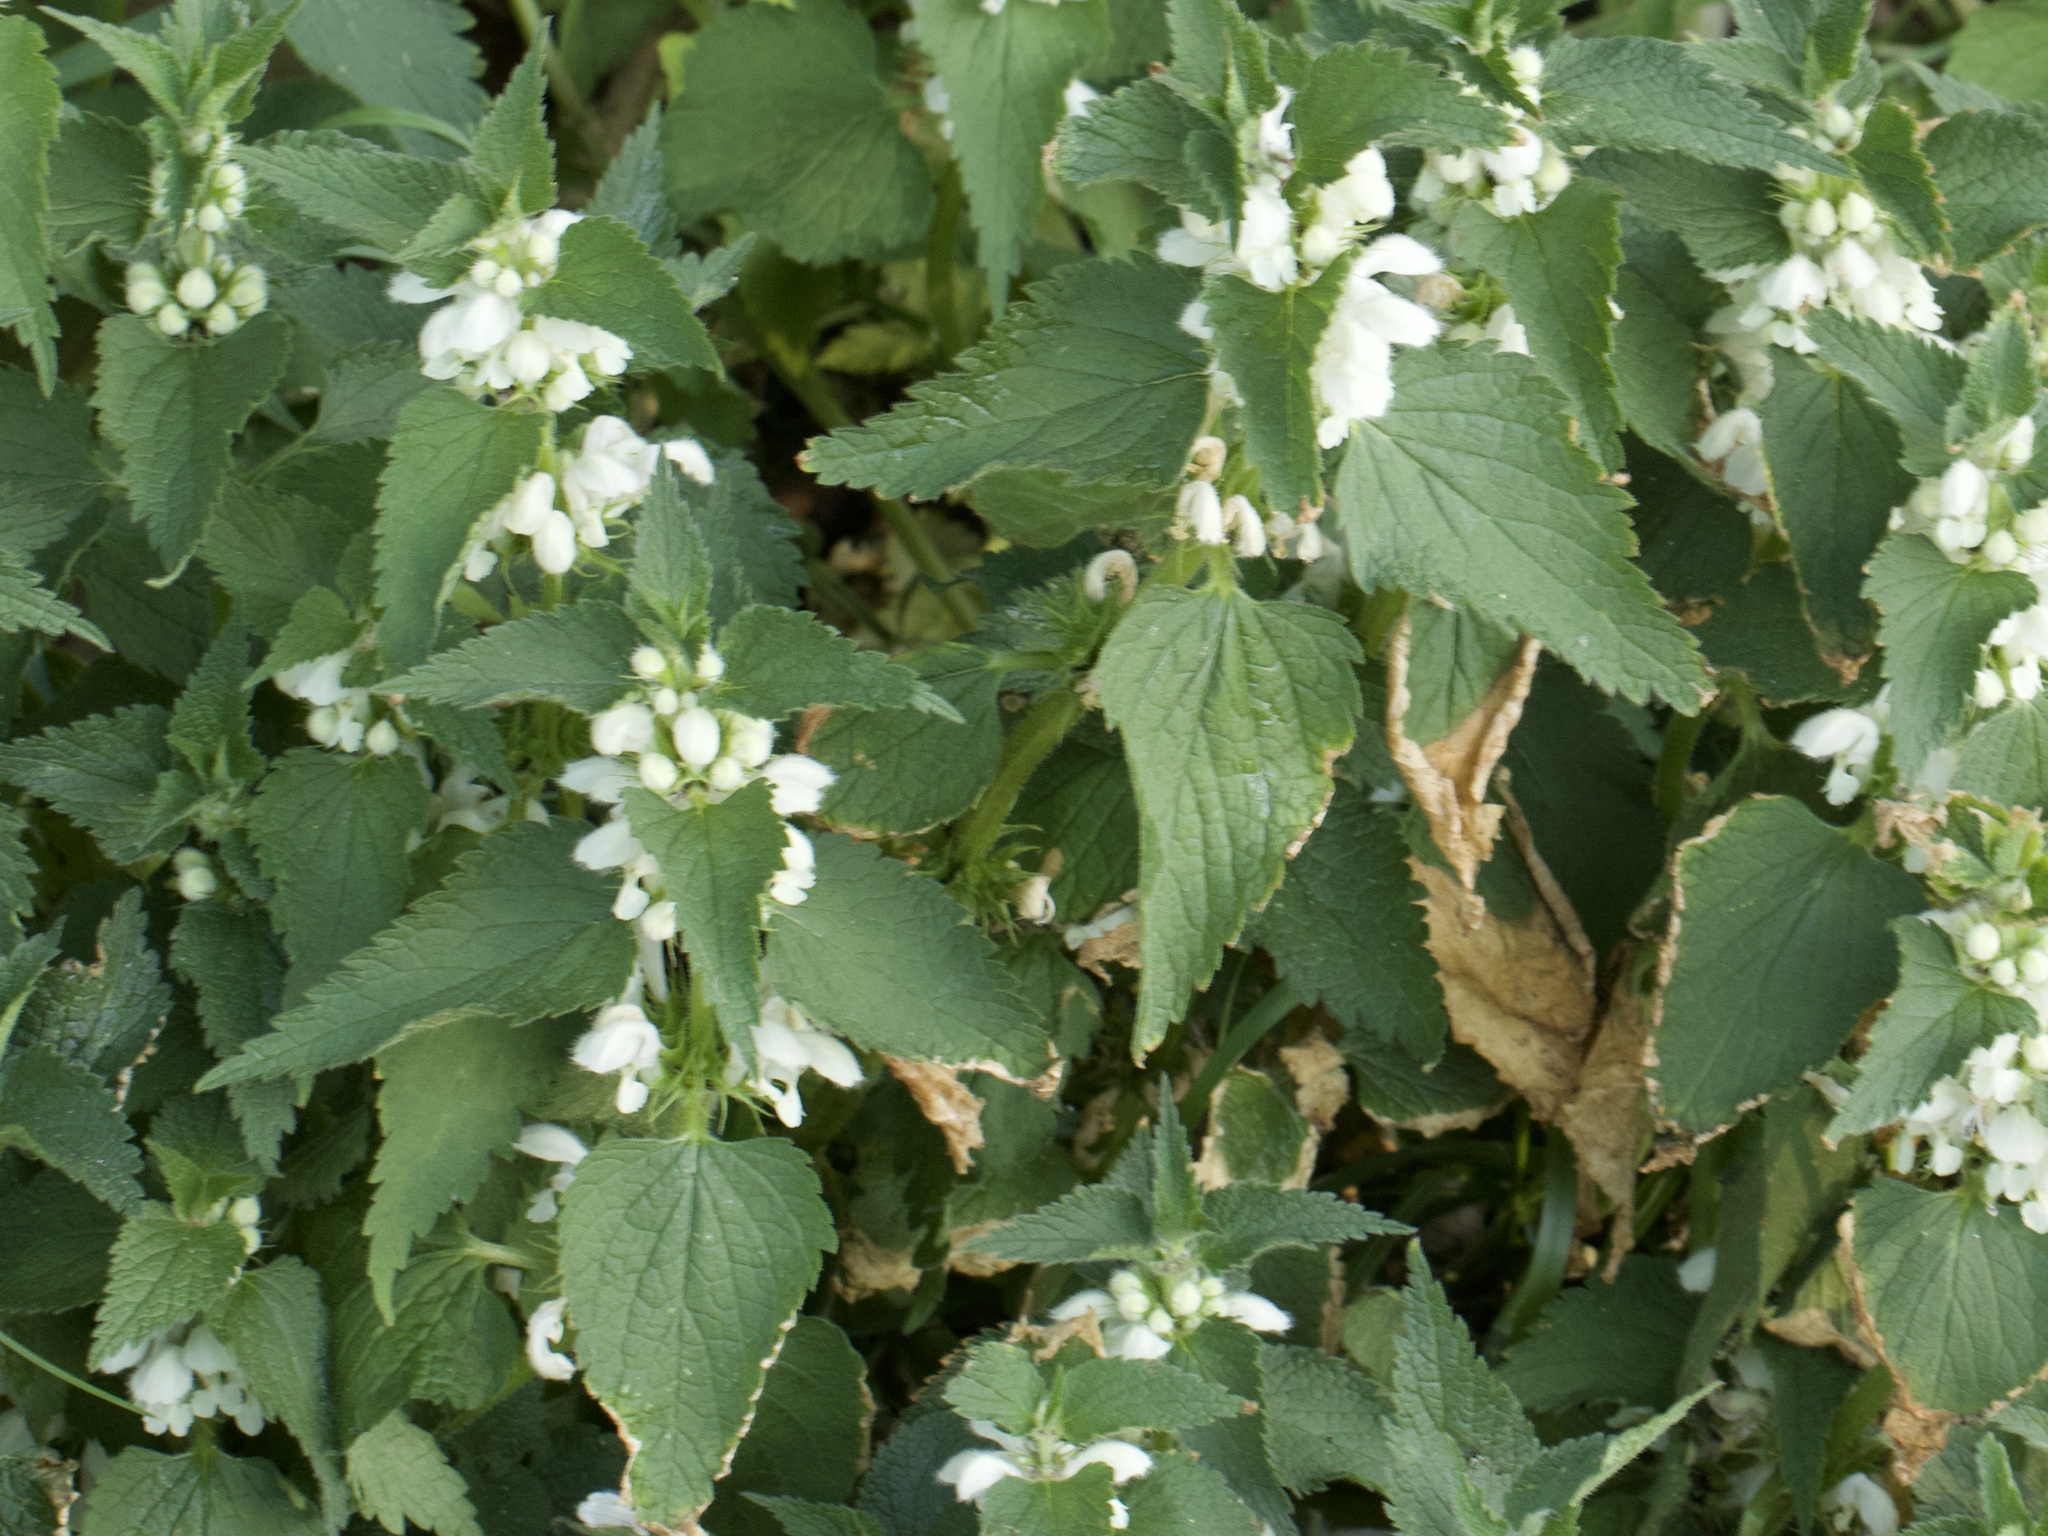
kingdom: Plantae
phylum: Tracheophyta
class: Magnoliopsida
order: Lamiales
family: Lamiaceae
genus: Lamium
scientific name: Lamium album
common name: White dead-nettle
